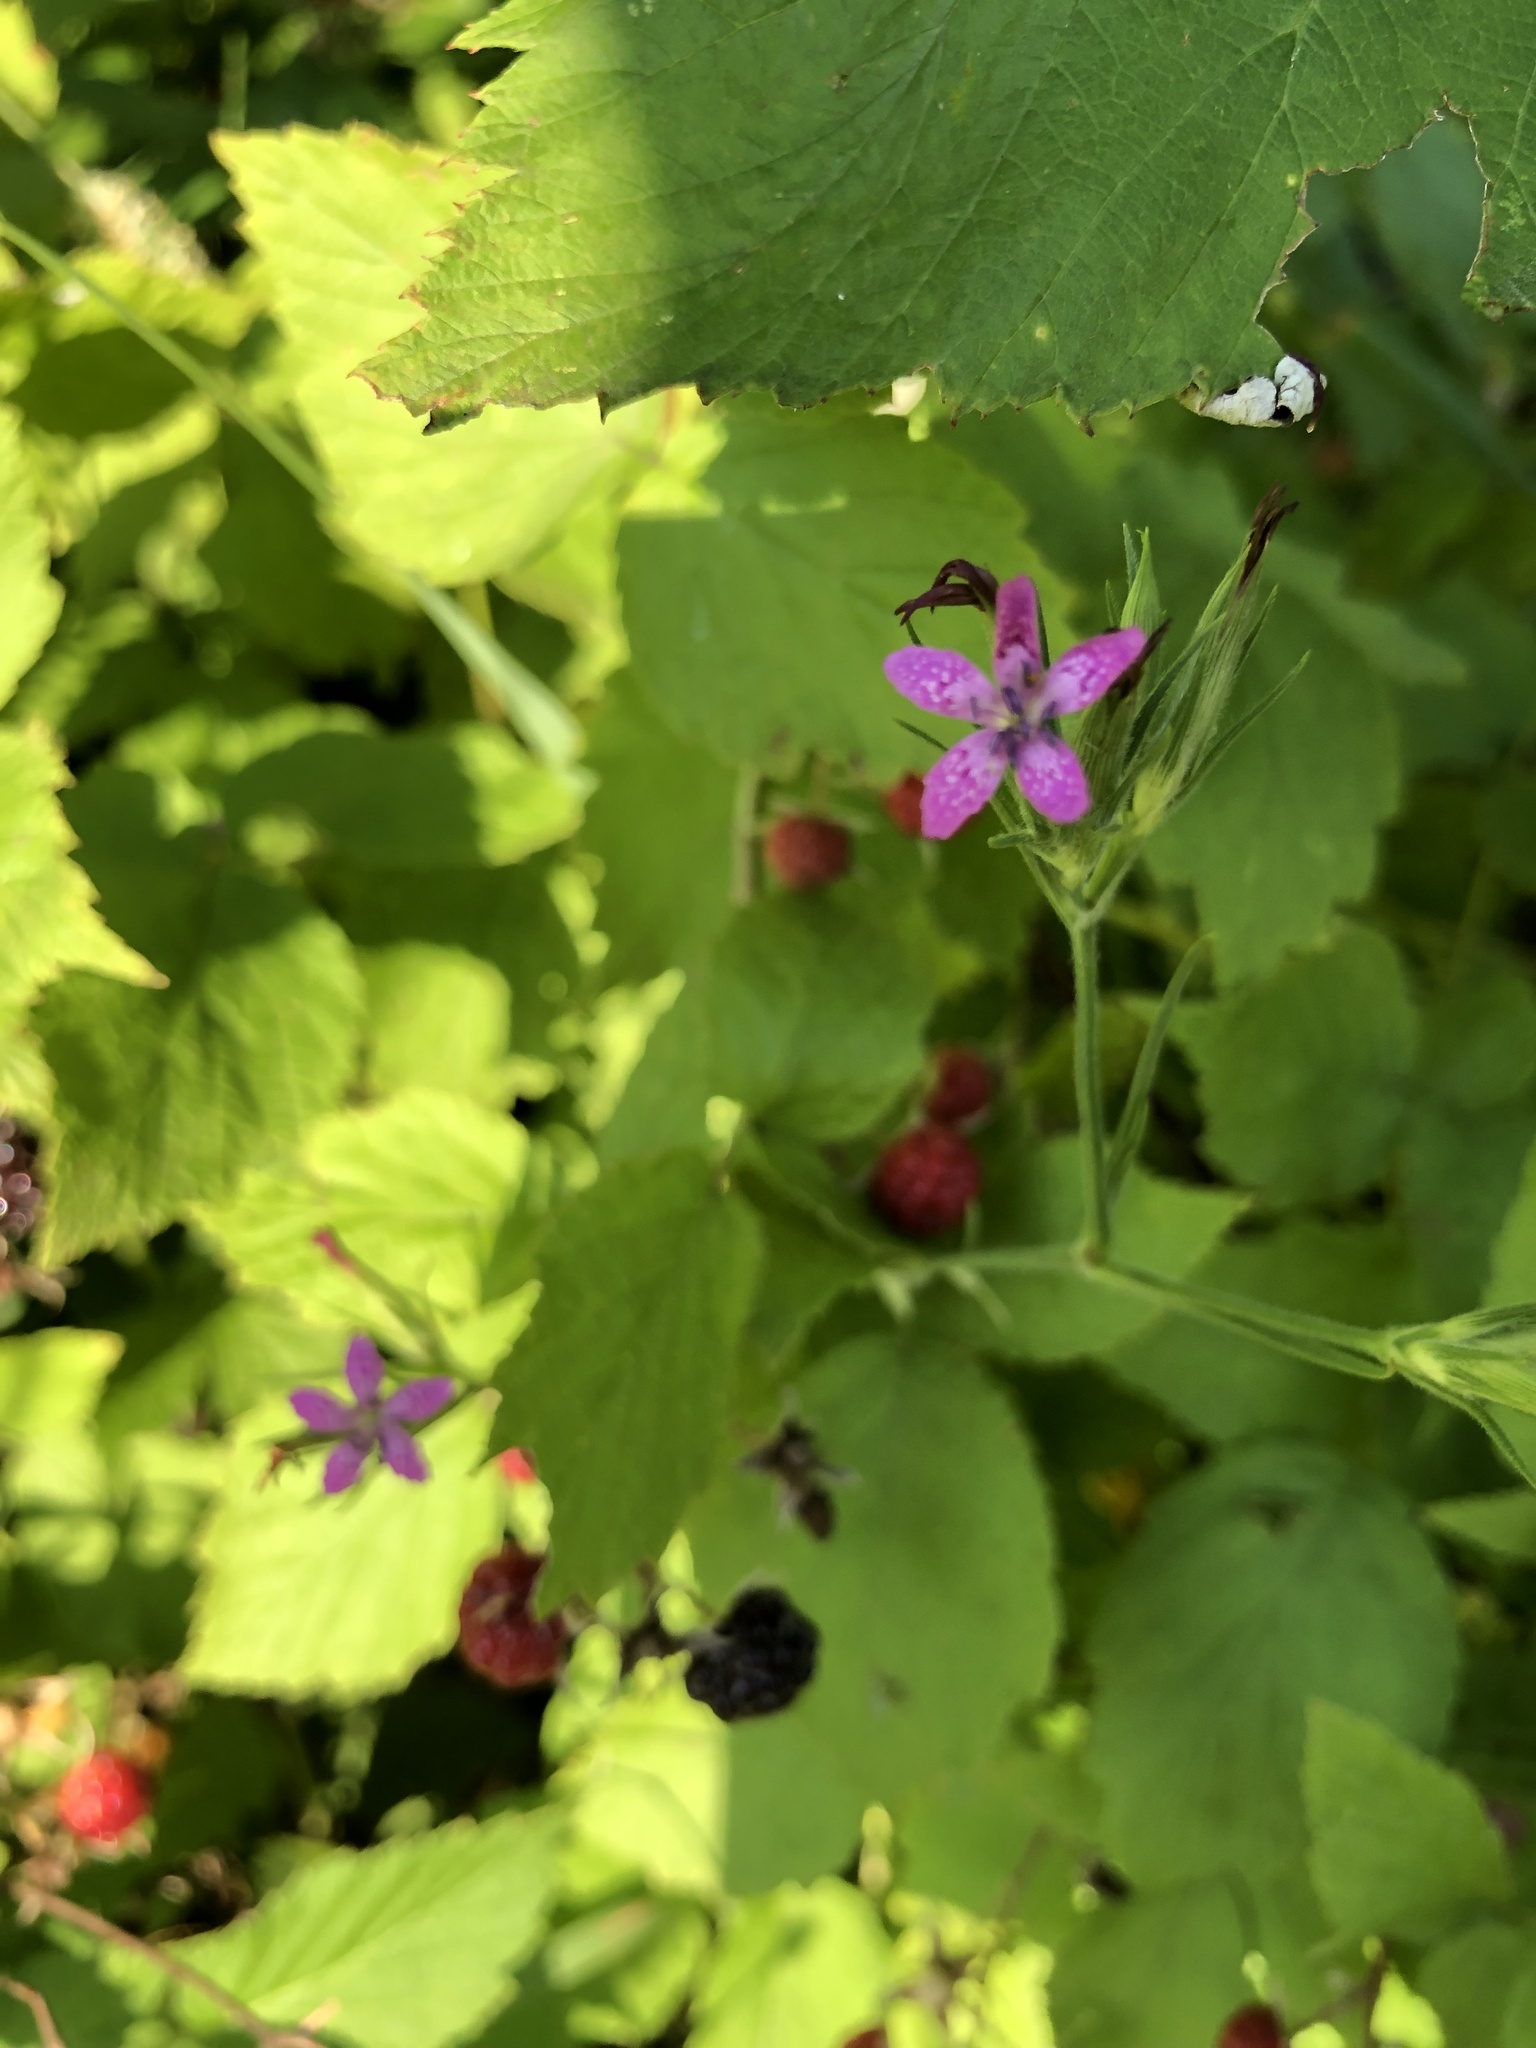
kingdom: Plantae
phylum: Tracheophyta
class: Magnoliopsida
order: Caryophyllales
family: Caryophyllaceae
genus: Dianthus
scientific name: Dianthus armeria
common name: Deptford pink
